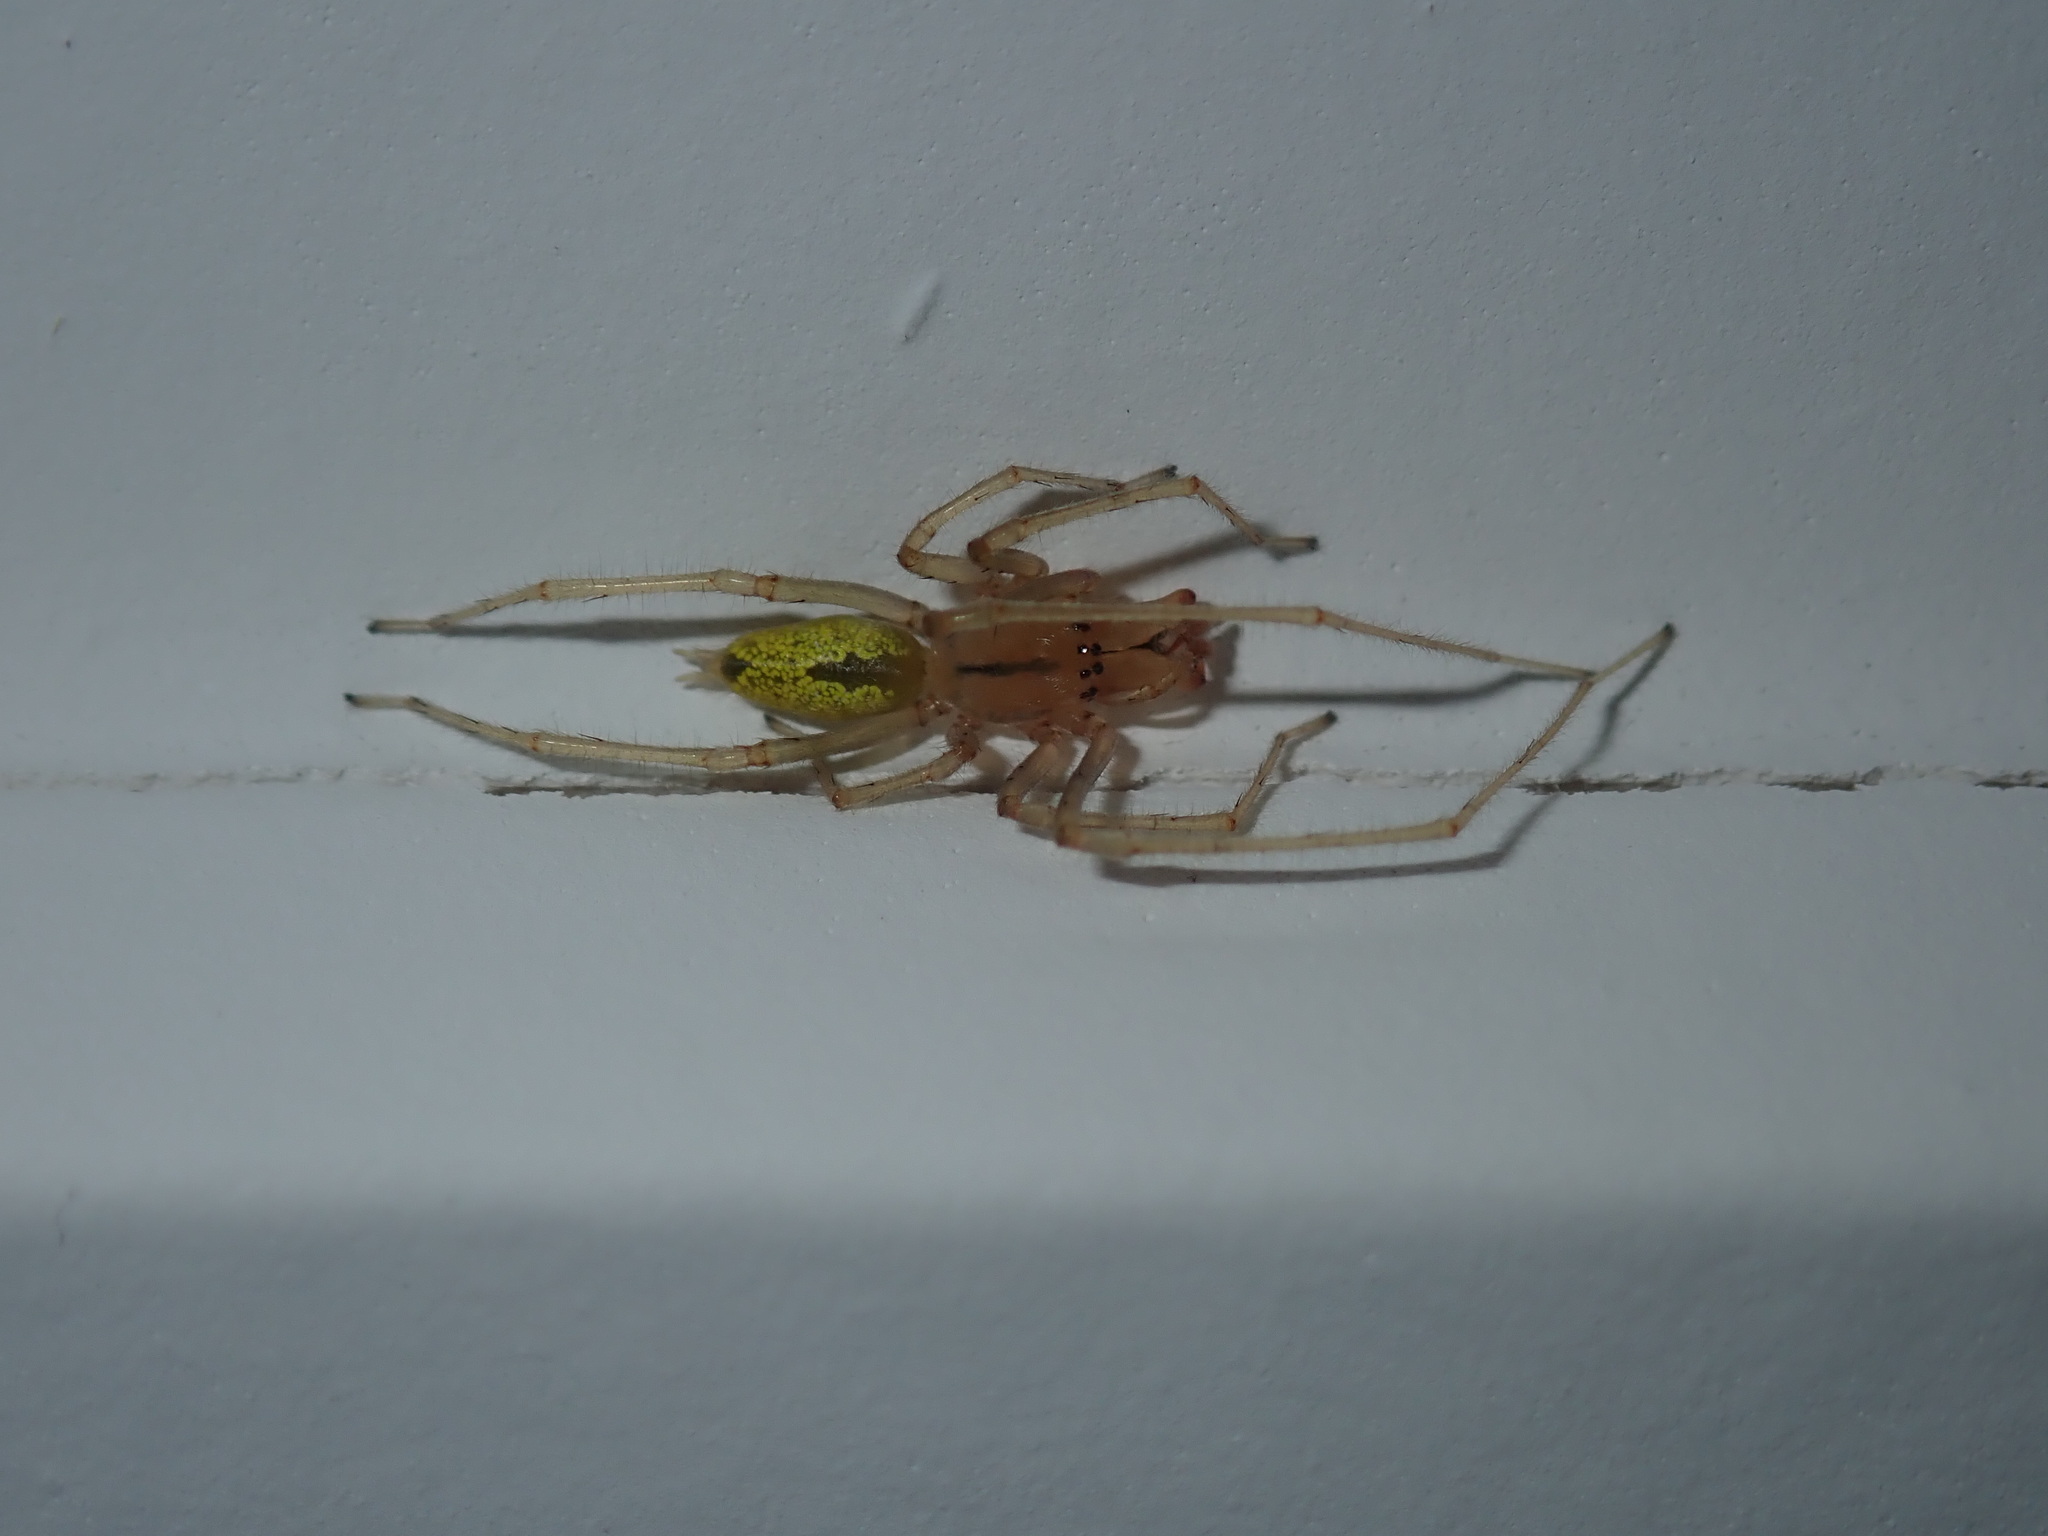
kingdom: Animalia
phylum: Arthropoda
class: Arachnida
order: Araneae
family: Cheiracanthiidae
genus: Cheiracanthium
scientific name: Cheiracanthium gracile
